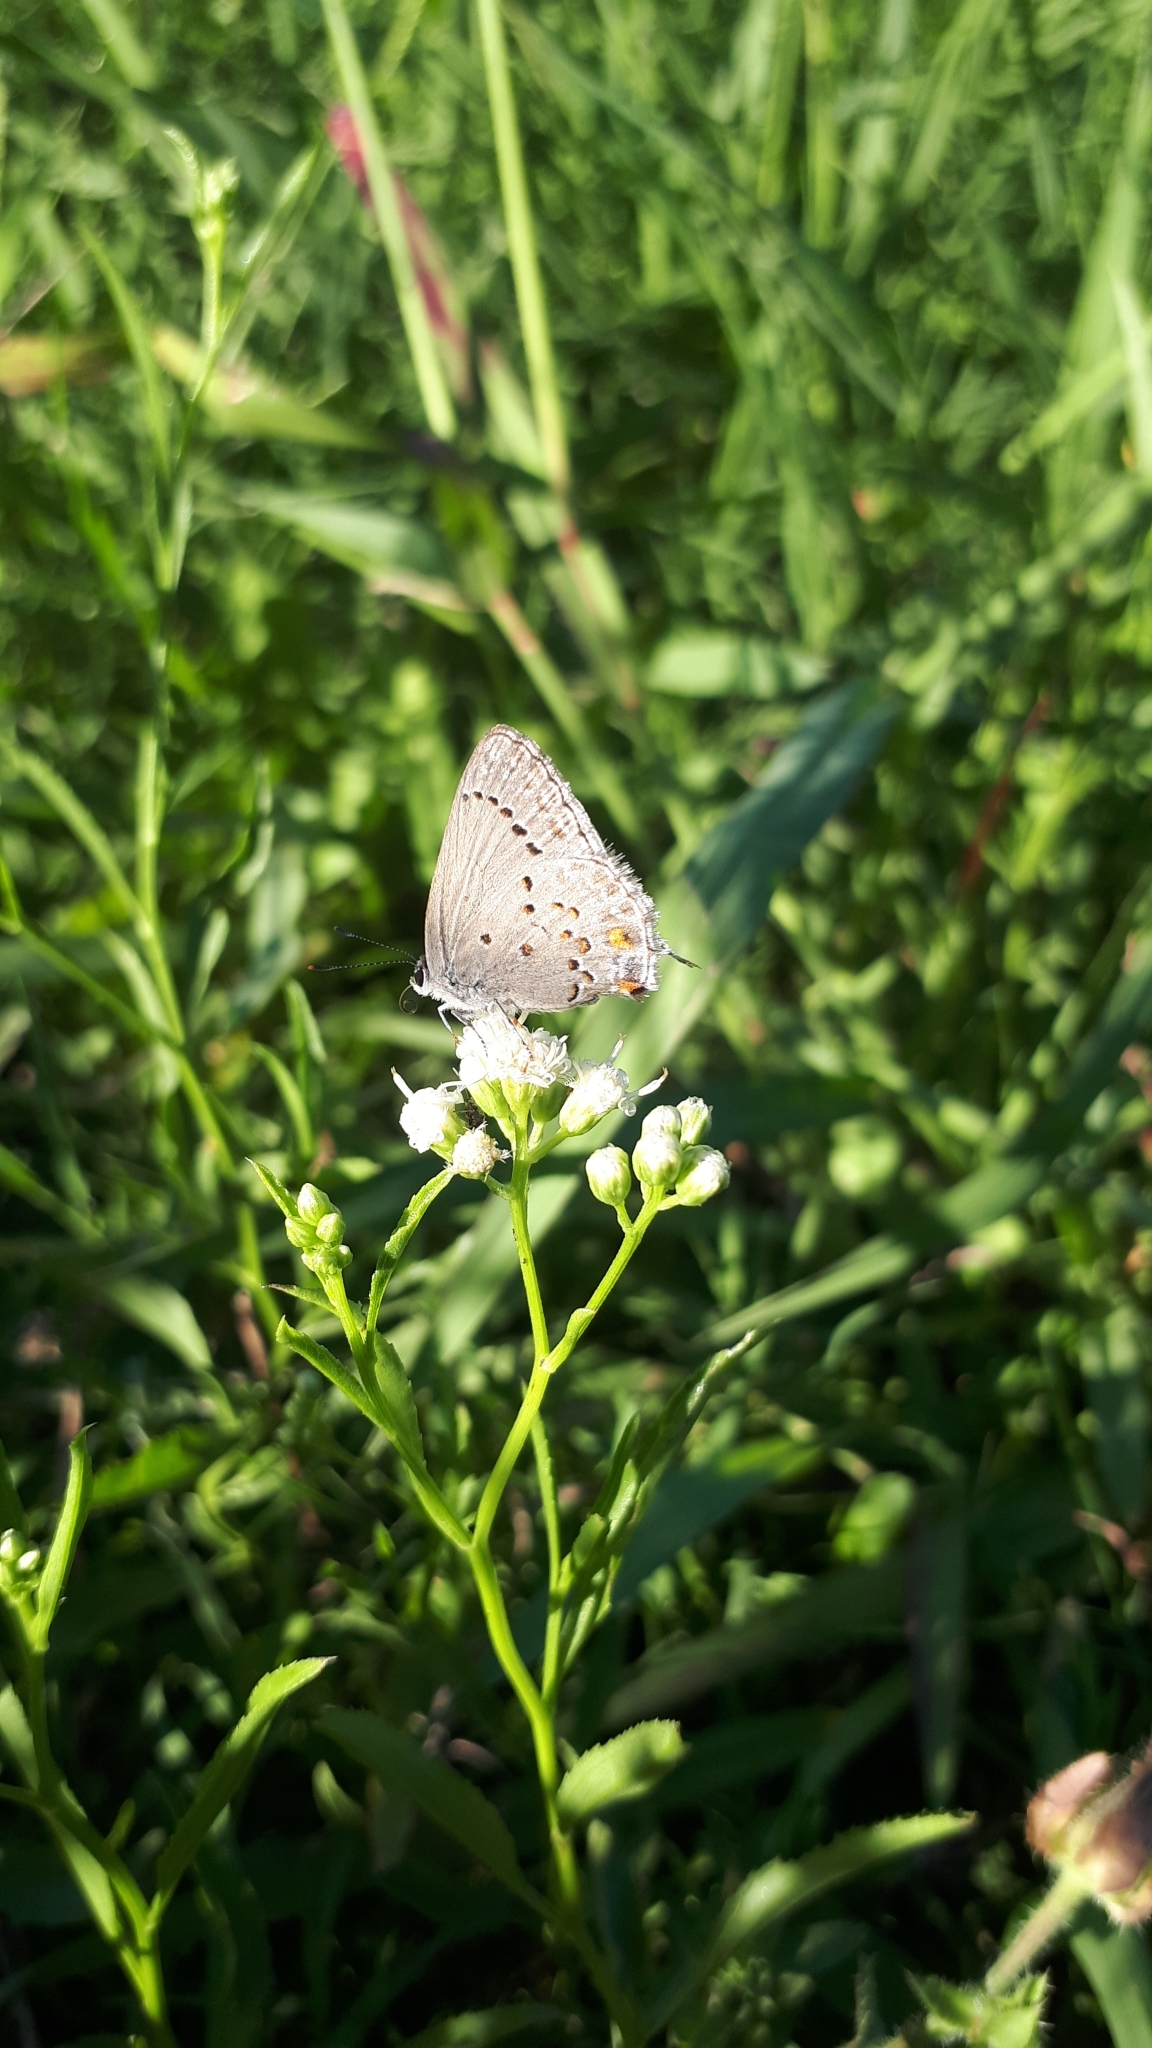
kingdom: Animalia
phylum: Arthropoda
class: Insecta
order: Lepidoptera
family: Lycaenidae
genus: Strymon
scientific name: Strymon eurytulus
